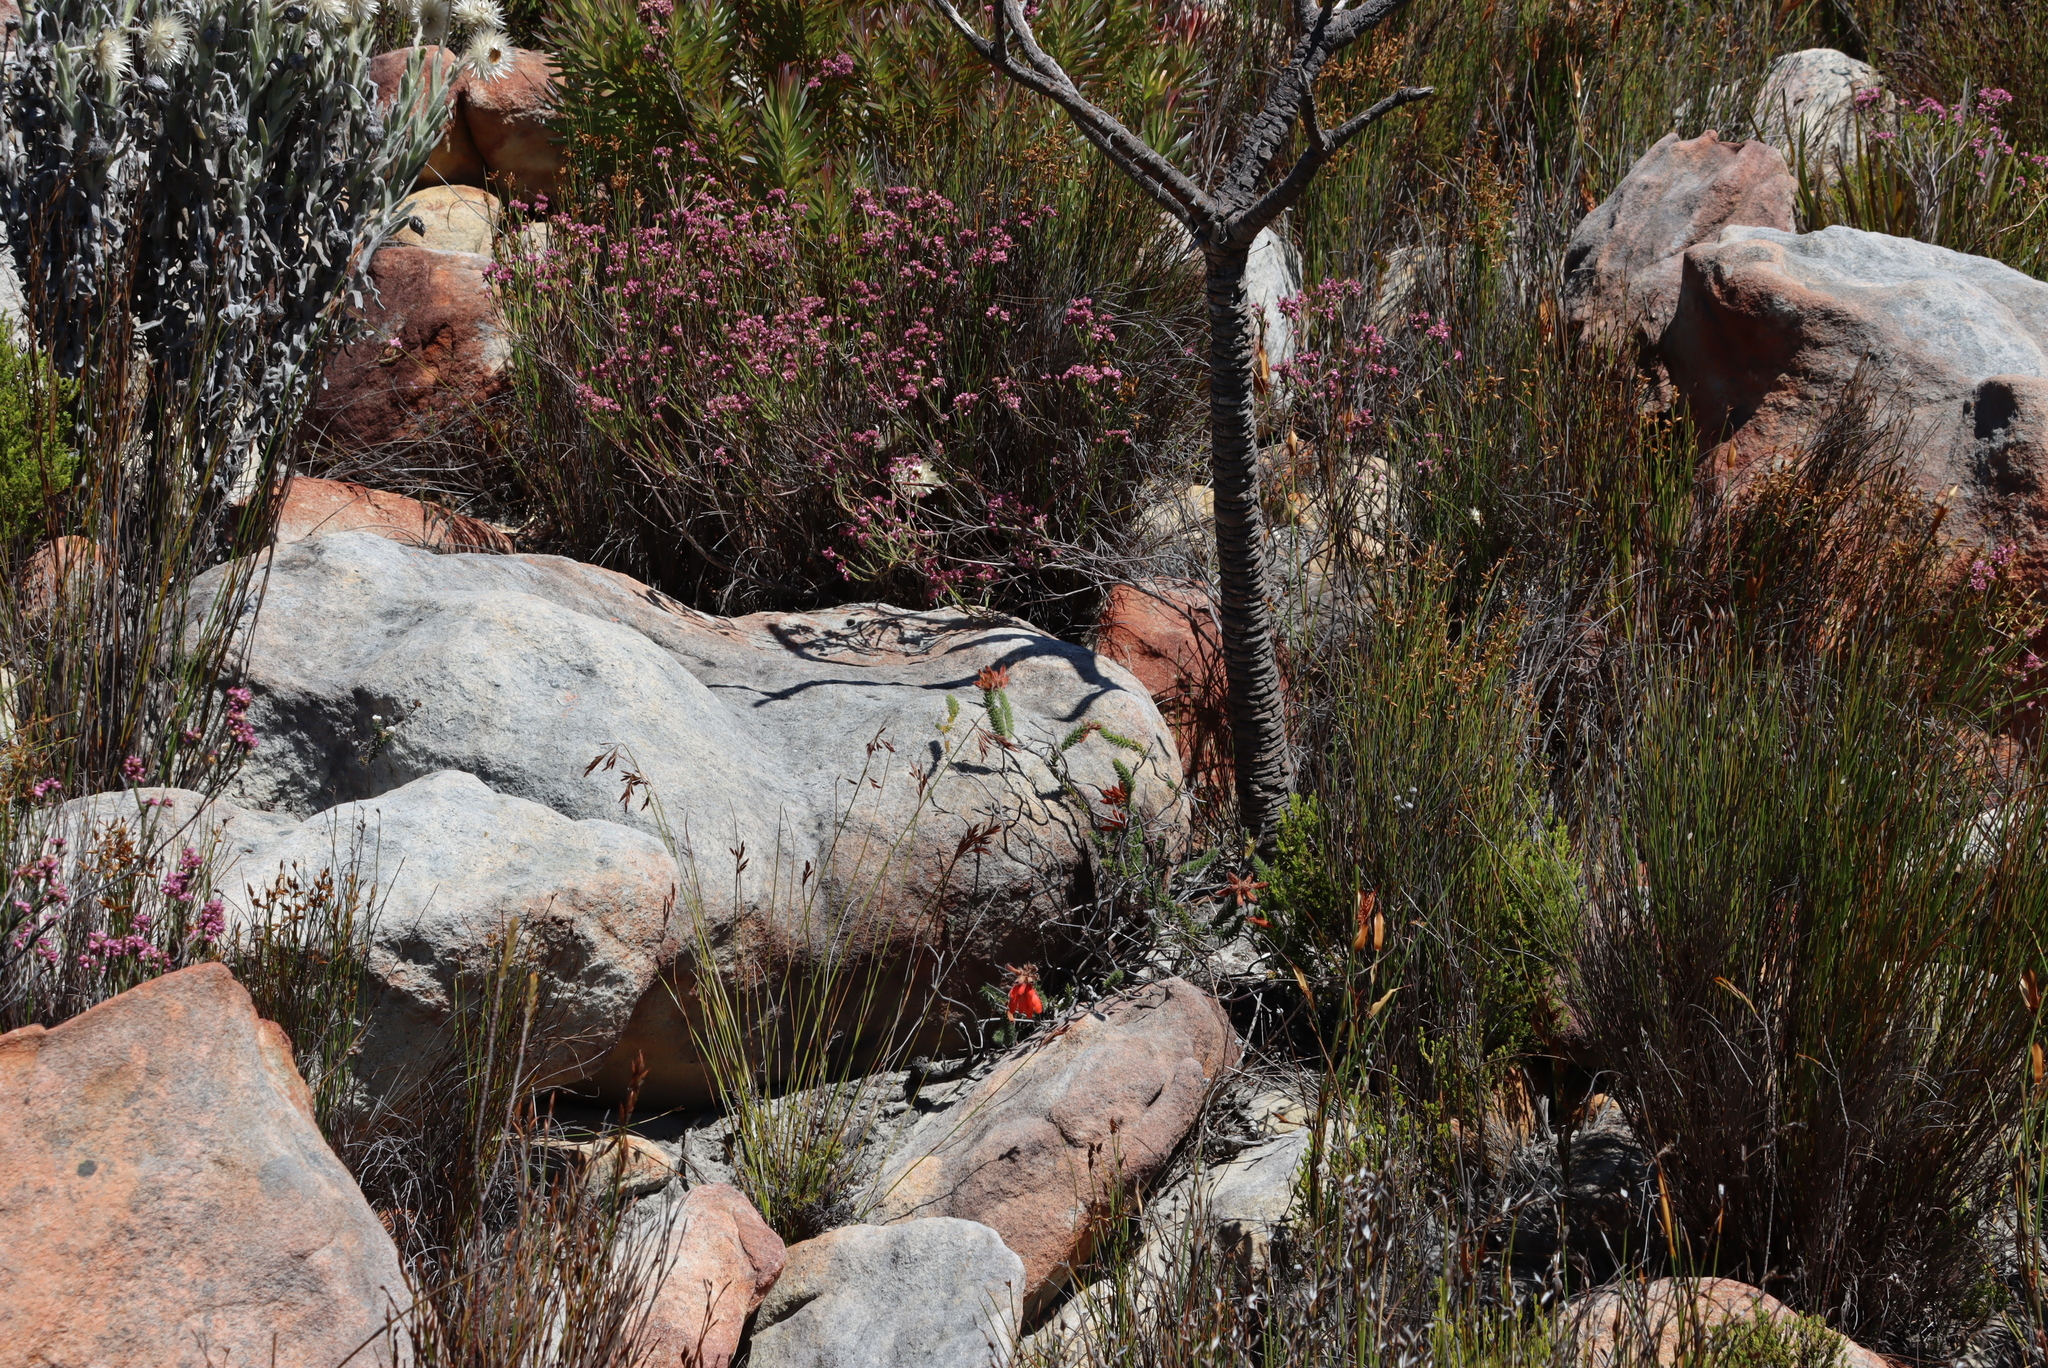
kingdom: Plantae
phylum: Tracheophyta
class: Magnoliopsida
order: Ericales
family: Ericaceae
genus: Erica
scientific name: Erica cerinthoides
